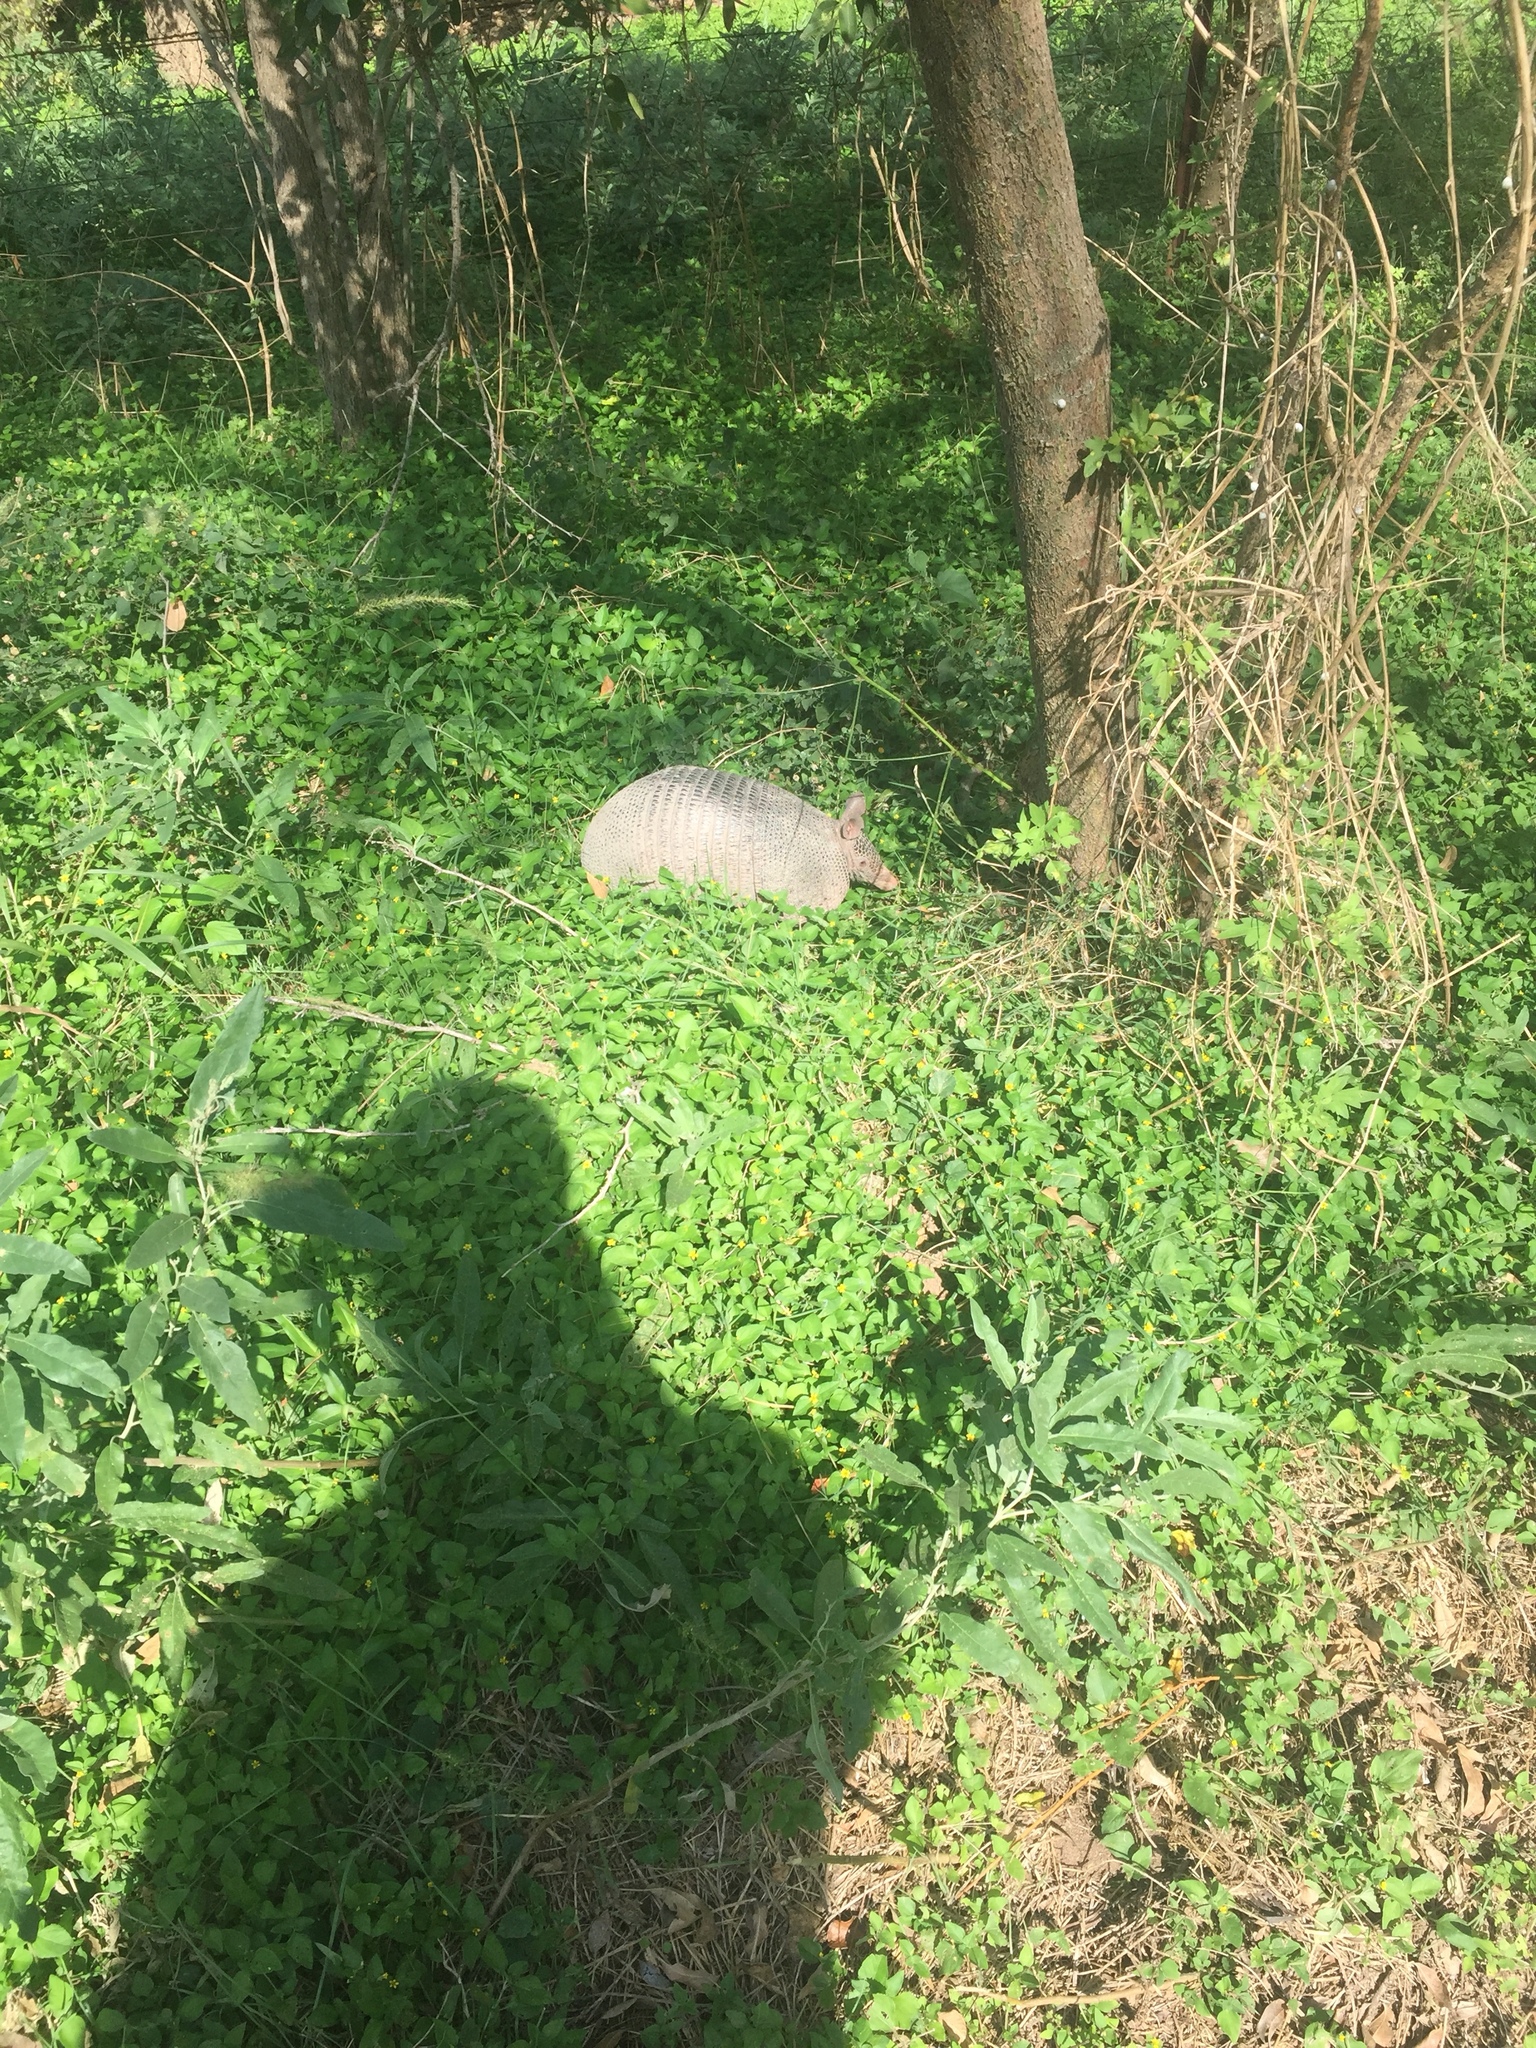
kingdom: Animalia
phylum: Chordata
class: Mammalia
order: Cingulata
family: Dasypodidae
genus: Dasypus
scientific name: Dasypus novemcinctus
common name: Nine-banded armadillo
